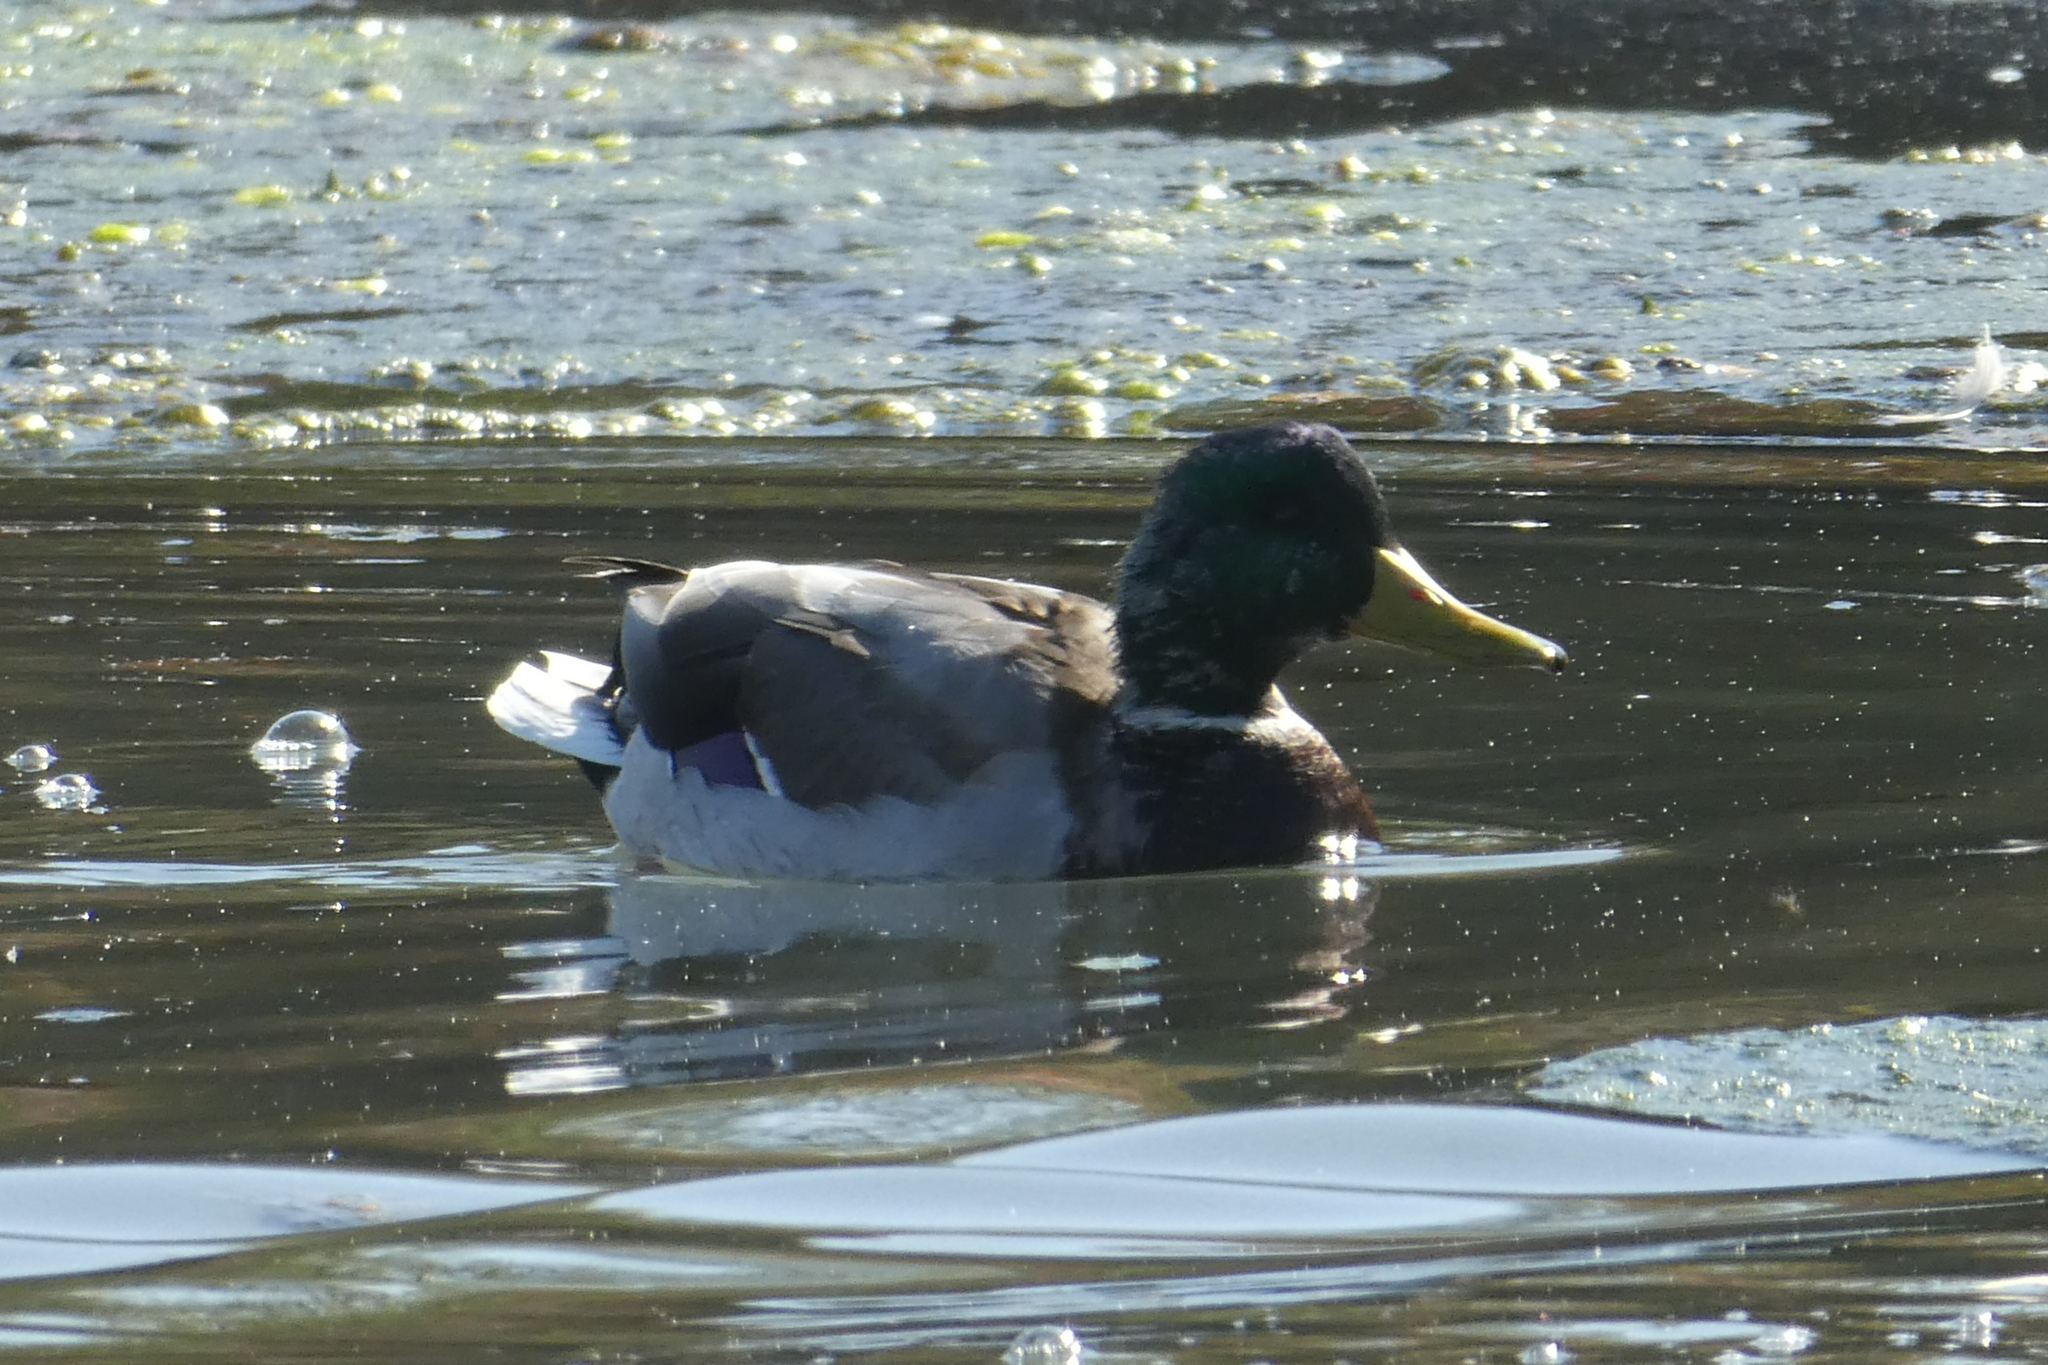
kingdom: Animalia
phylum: Chordata
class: Aves
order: Anseriformes
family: Anatidae
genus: Anas
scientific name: Anas platyrhynchos
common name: Mallard
